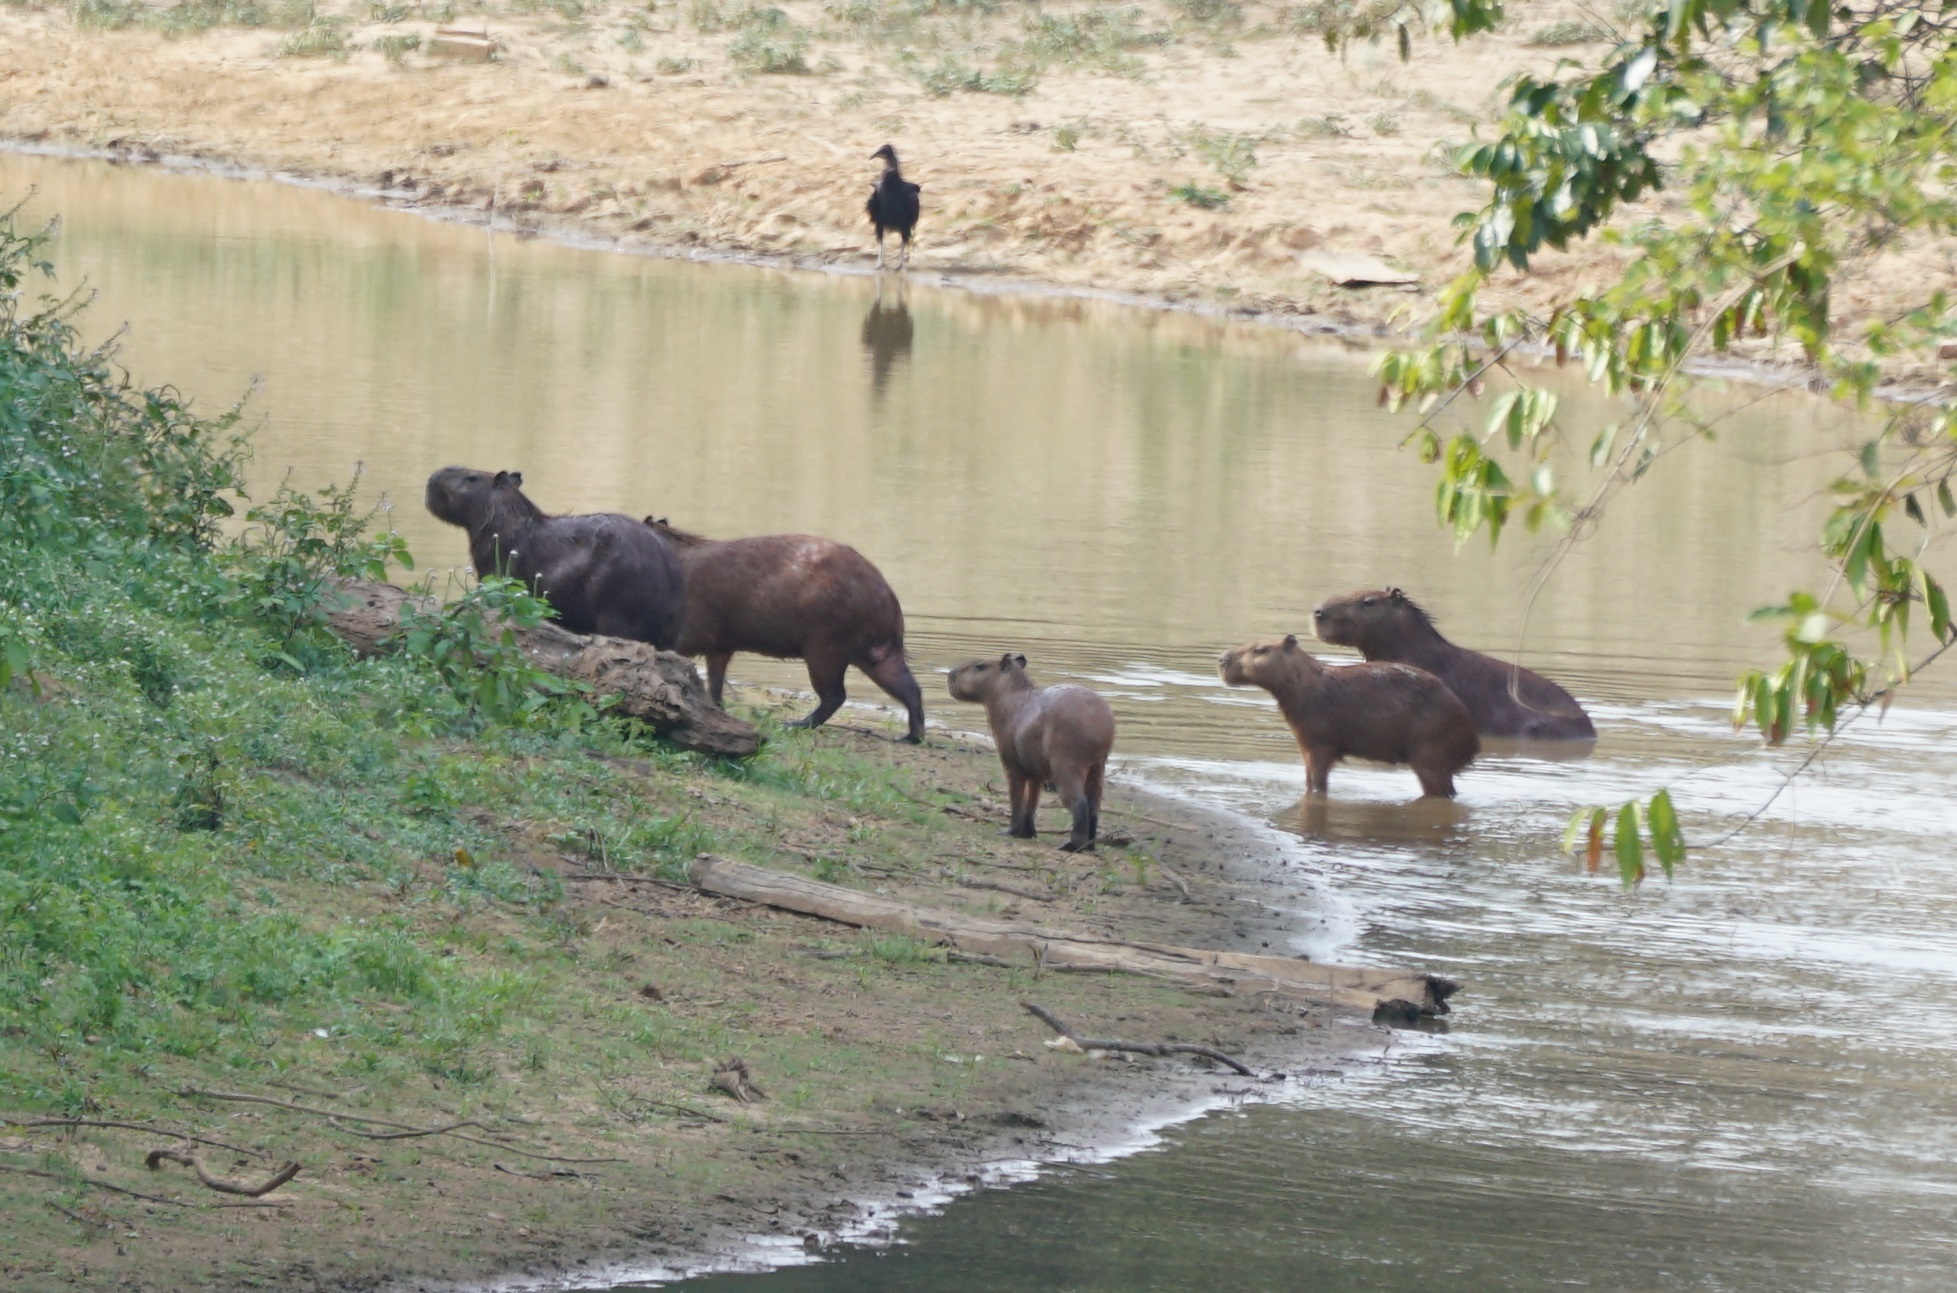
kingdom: Animalia
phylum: Chordata
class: Mammalia
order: Rodentia
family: Caviidae
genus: Hydrochoerus
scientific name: Hydrochoerus hydrochaeris
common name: Capybara
